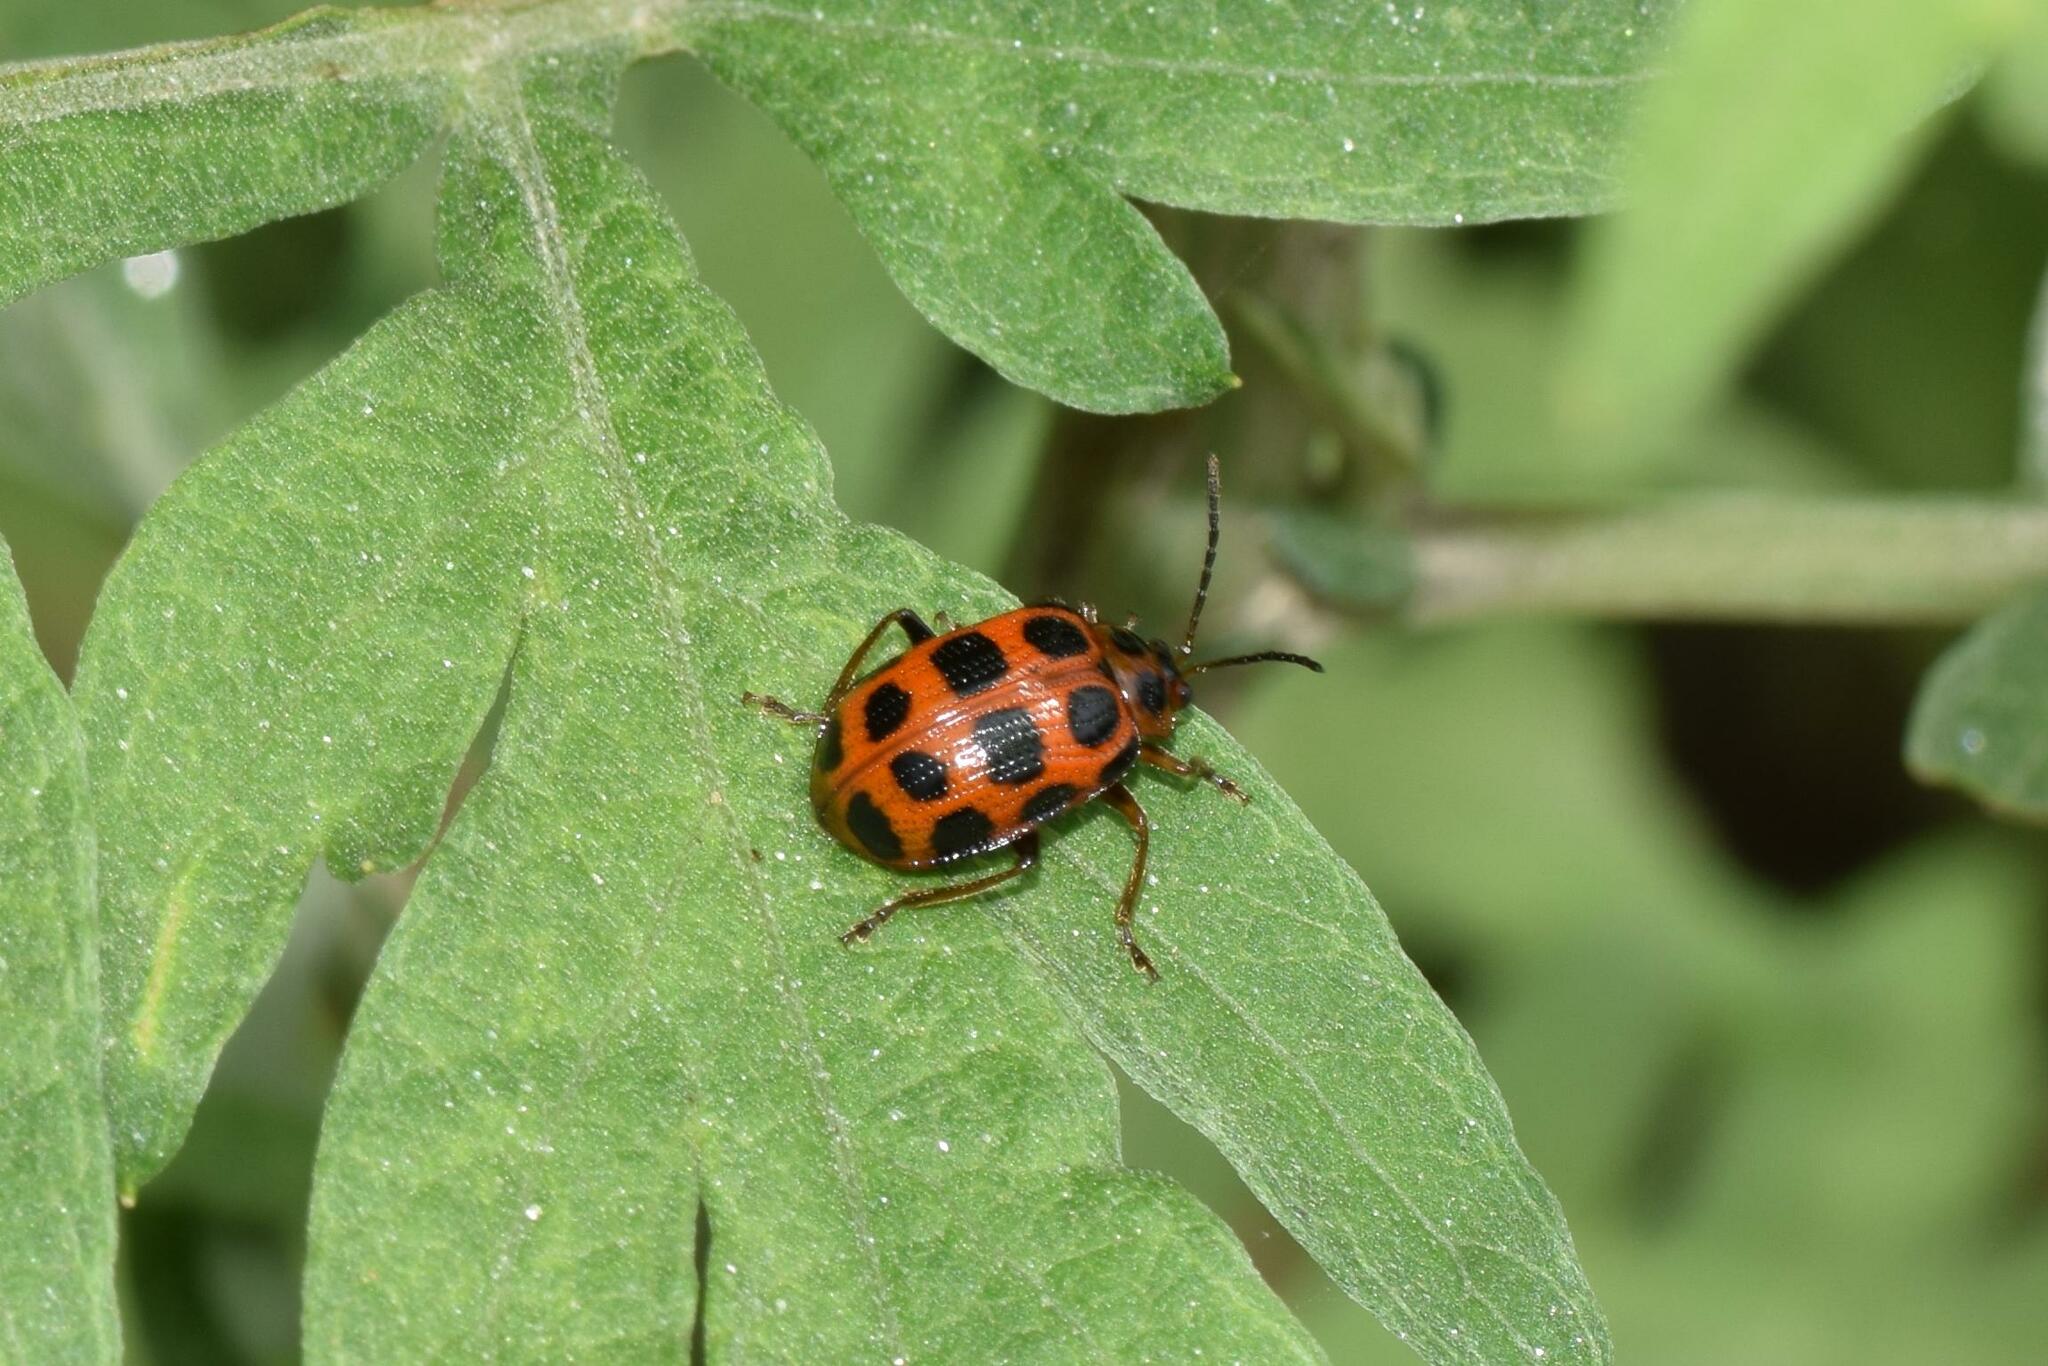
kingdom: Animalia
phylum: Arthropoda
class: Insecta
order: Coleoptera
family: Chrysomelidae
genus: Sphenoraia
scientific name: Sphenoraia
